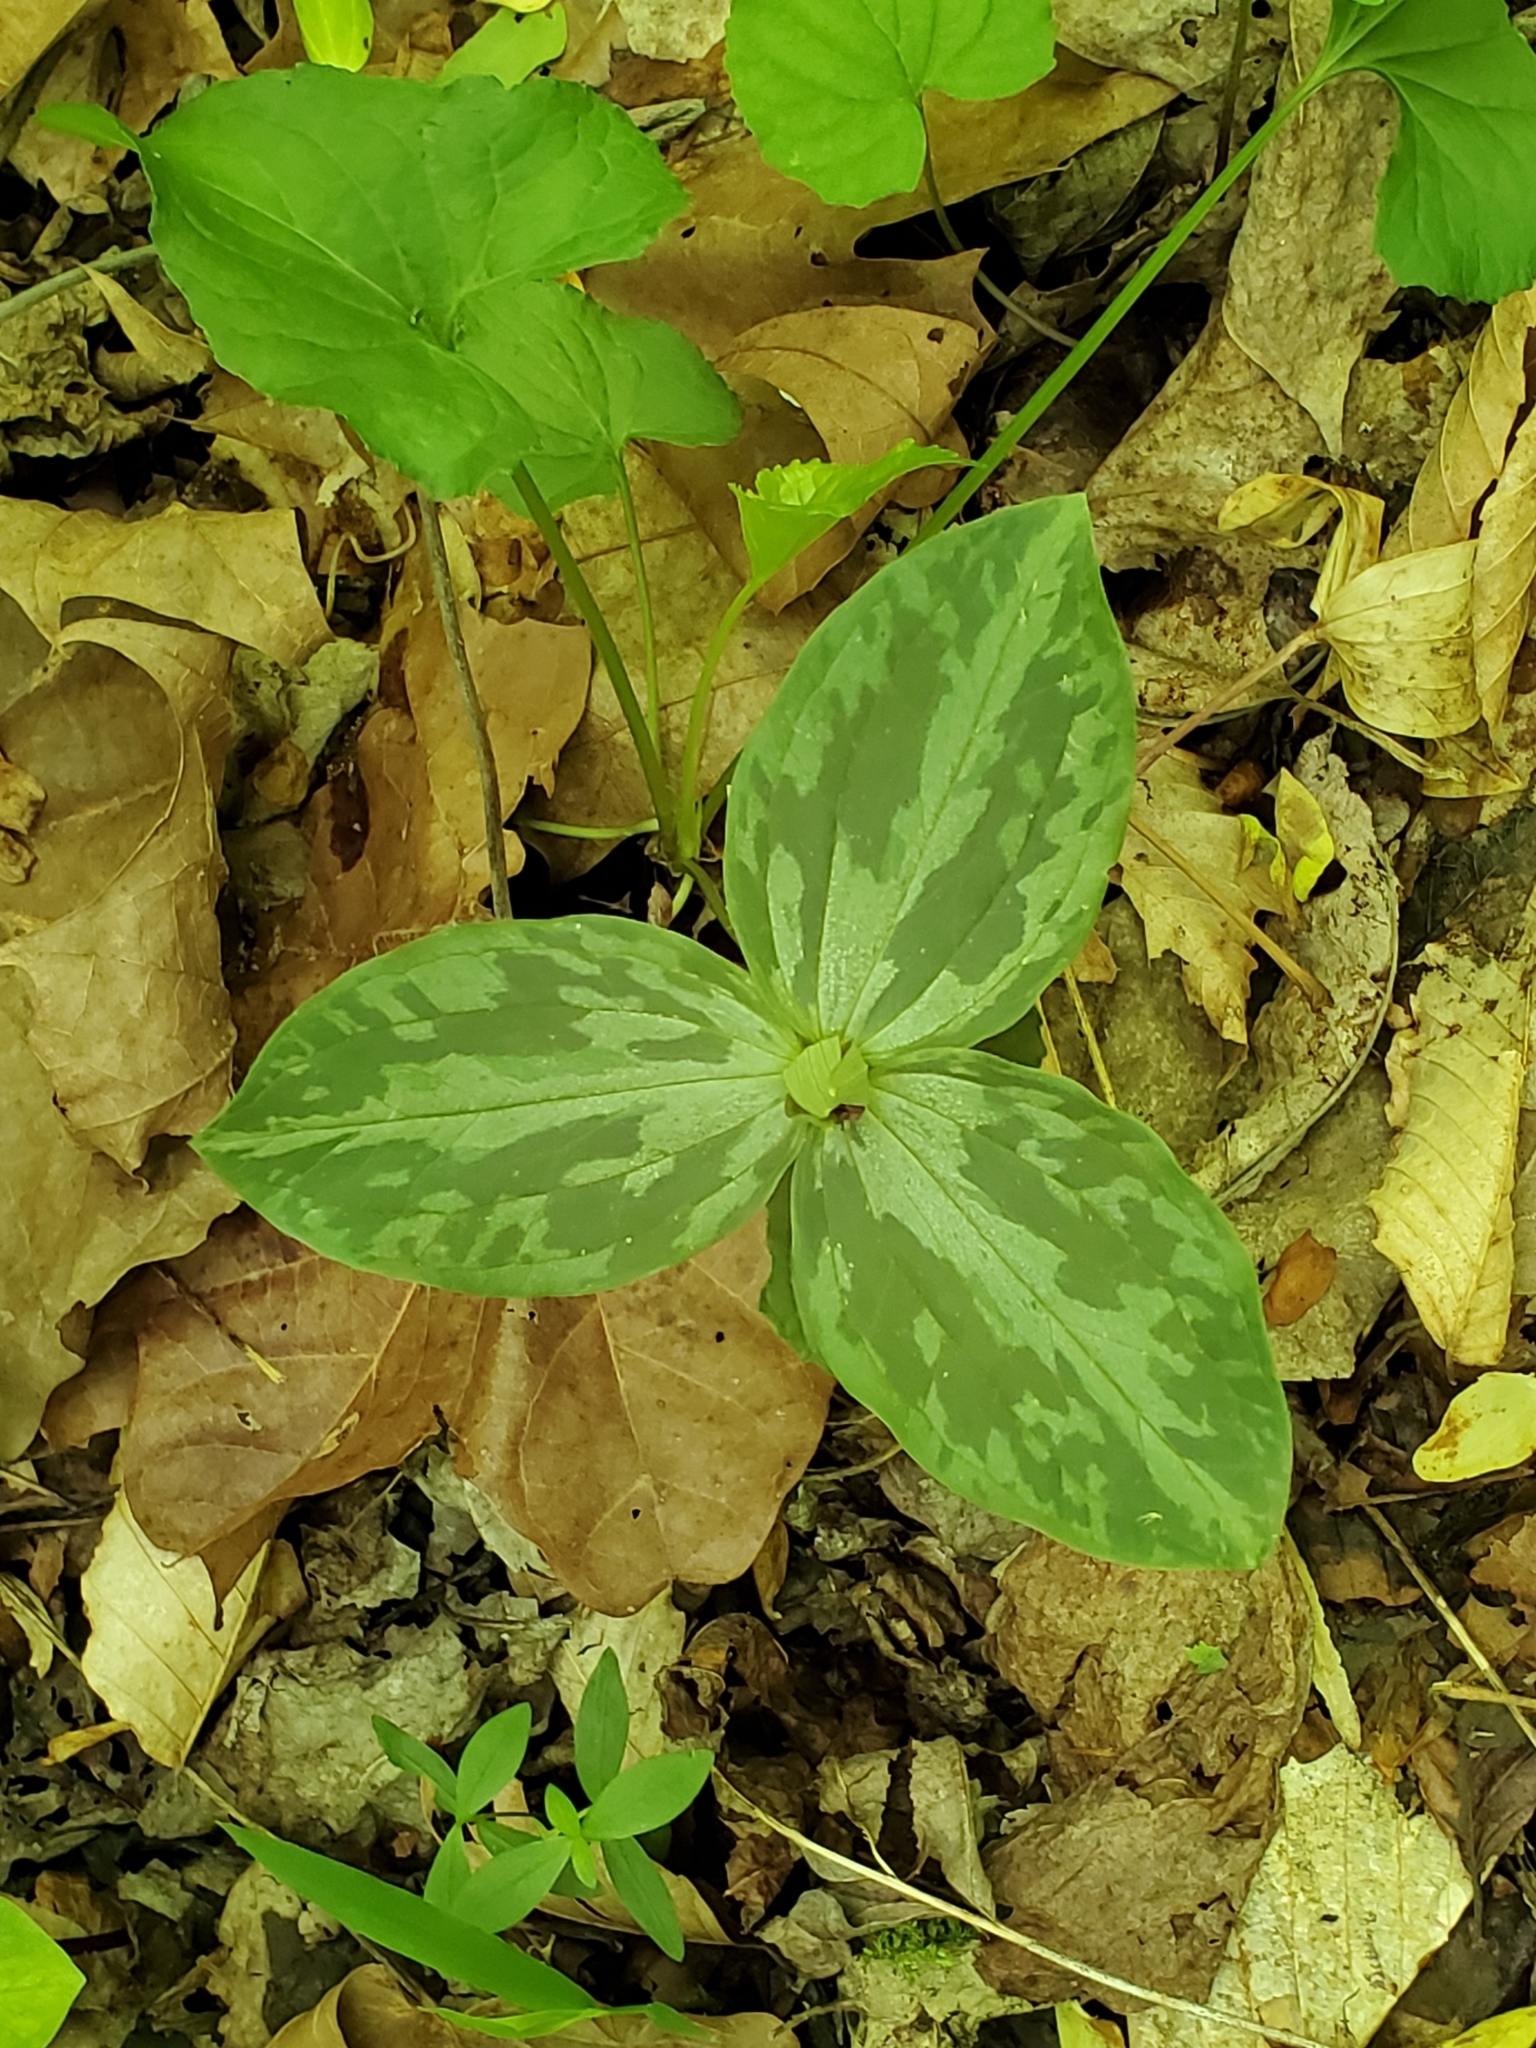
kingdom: Plantae
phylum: Tracheophyta
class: Liliopsida
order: Liliales
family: Melanthiaceae
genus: Trillium
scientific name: Trillium sessile
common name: Sessile trillium
